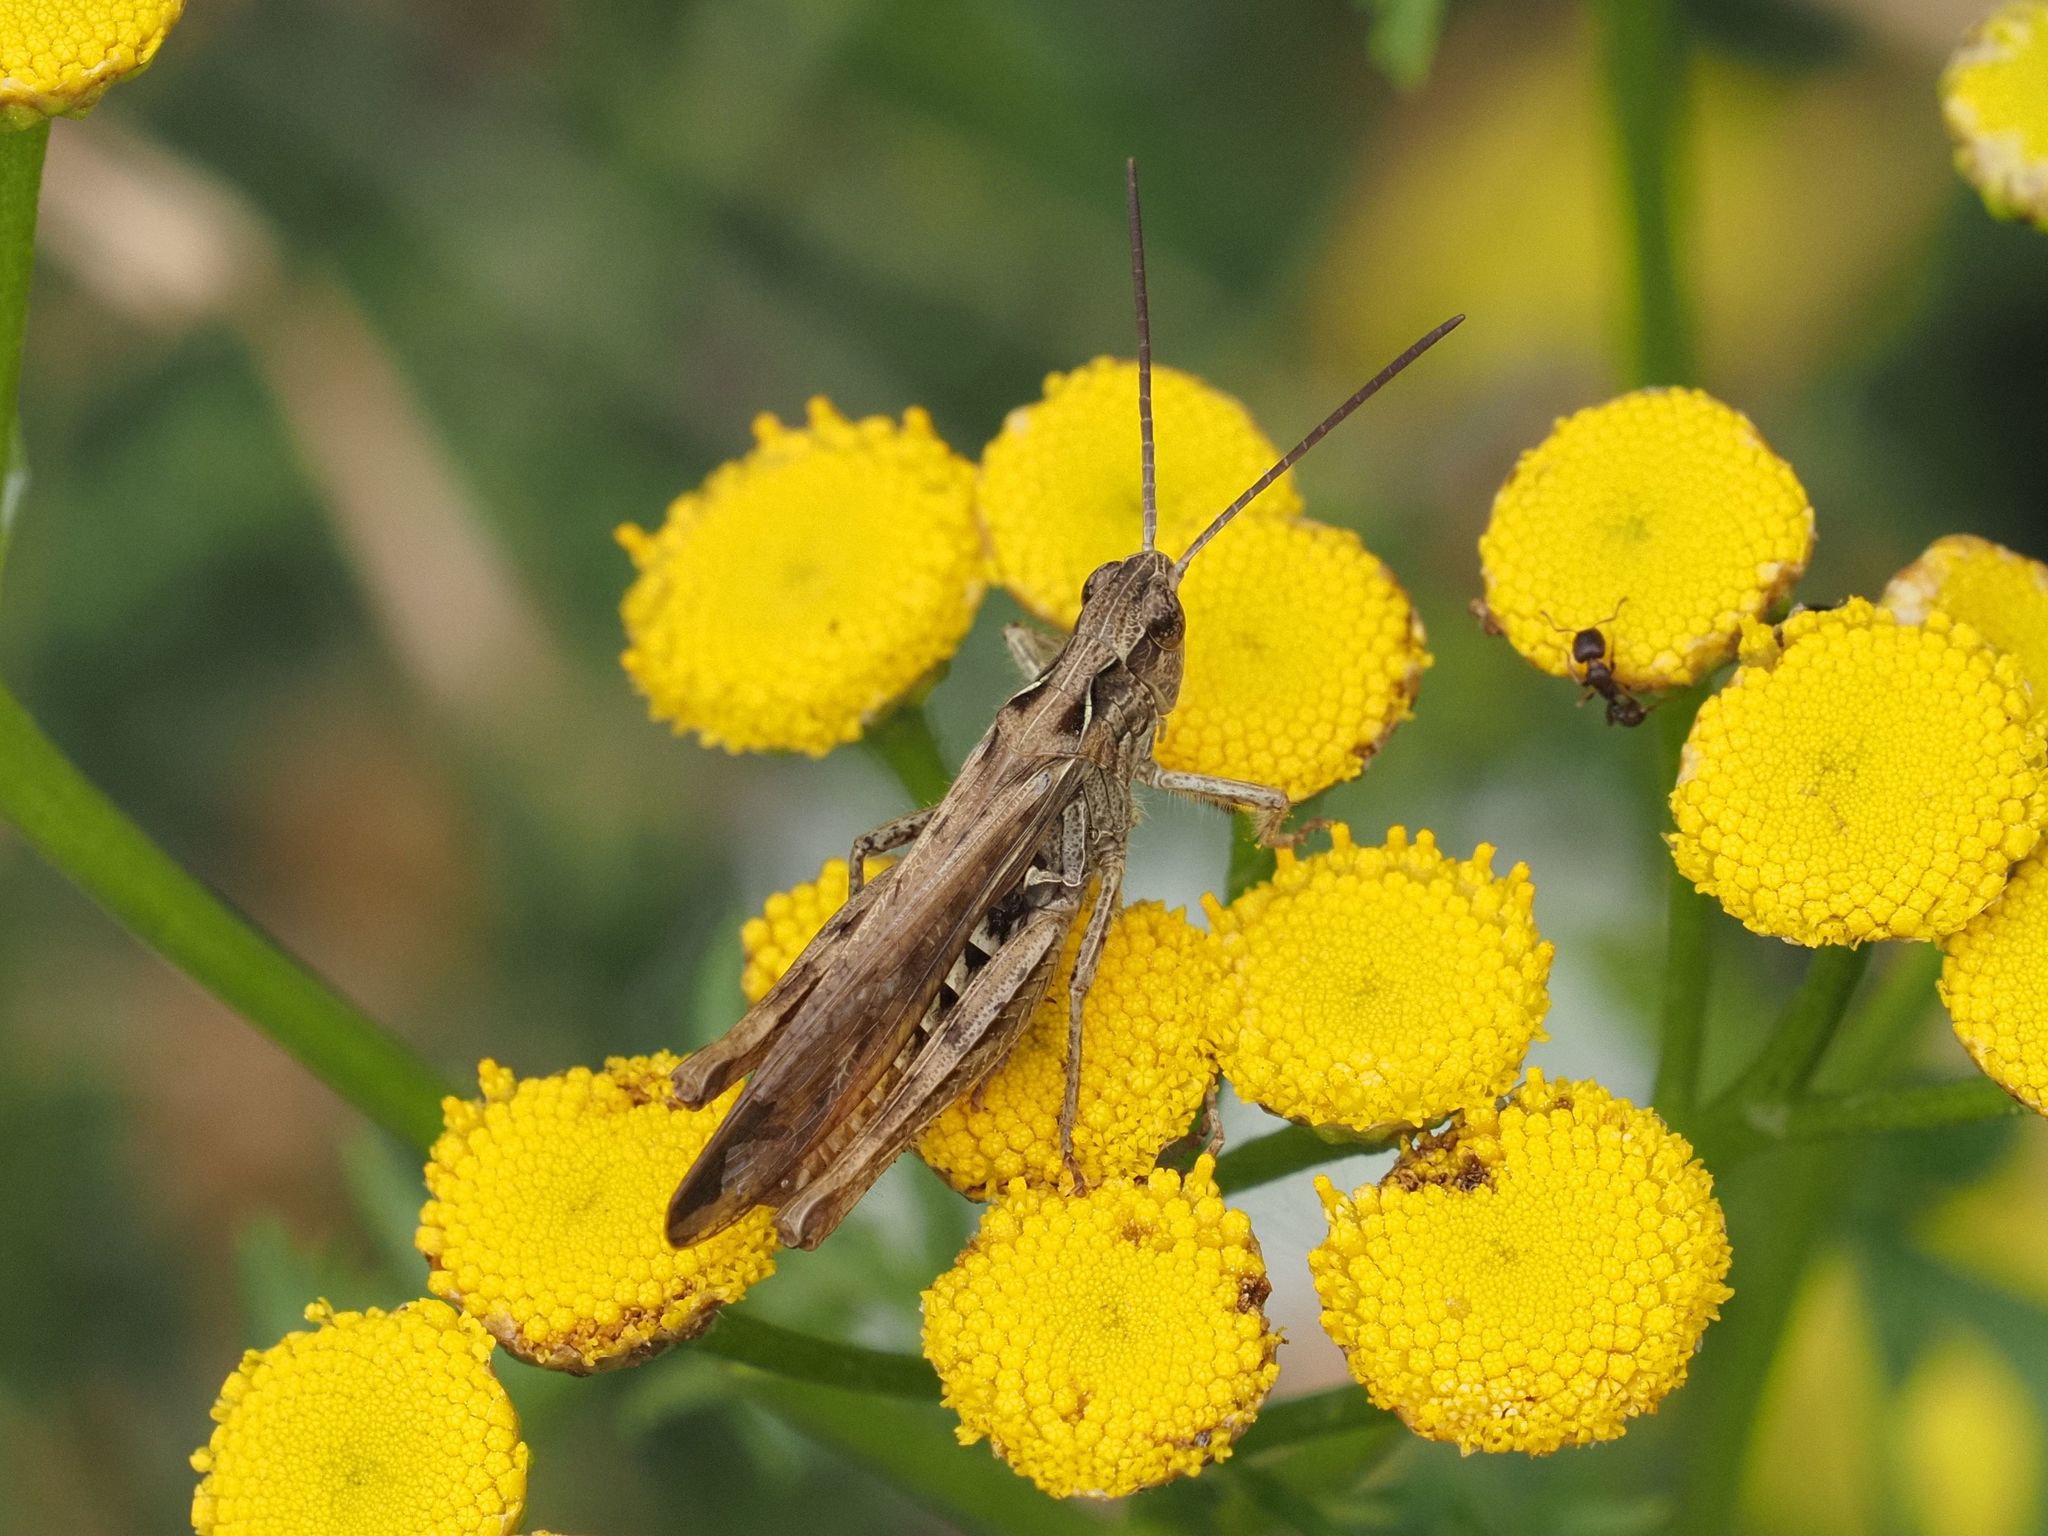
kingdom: Animalia
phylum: Arthropoda
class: Insecta
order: Orthoptera
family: Acrididae
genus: Chorthippus
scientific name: Chorthippus brunneus
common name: Field grasshopper
